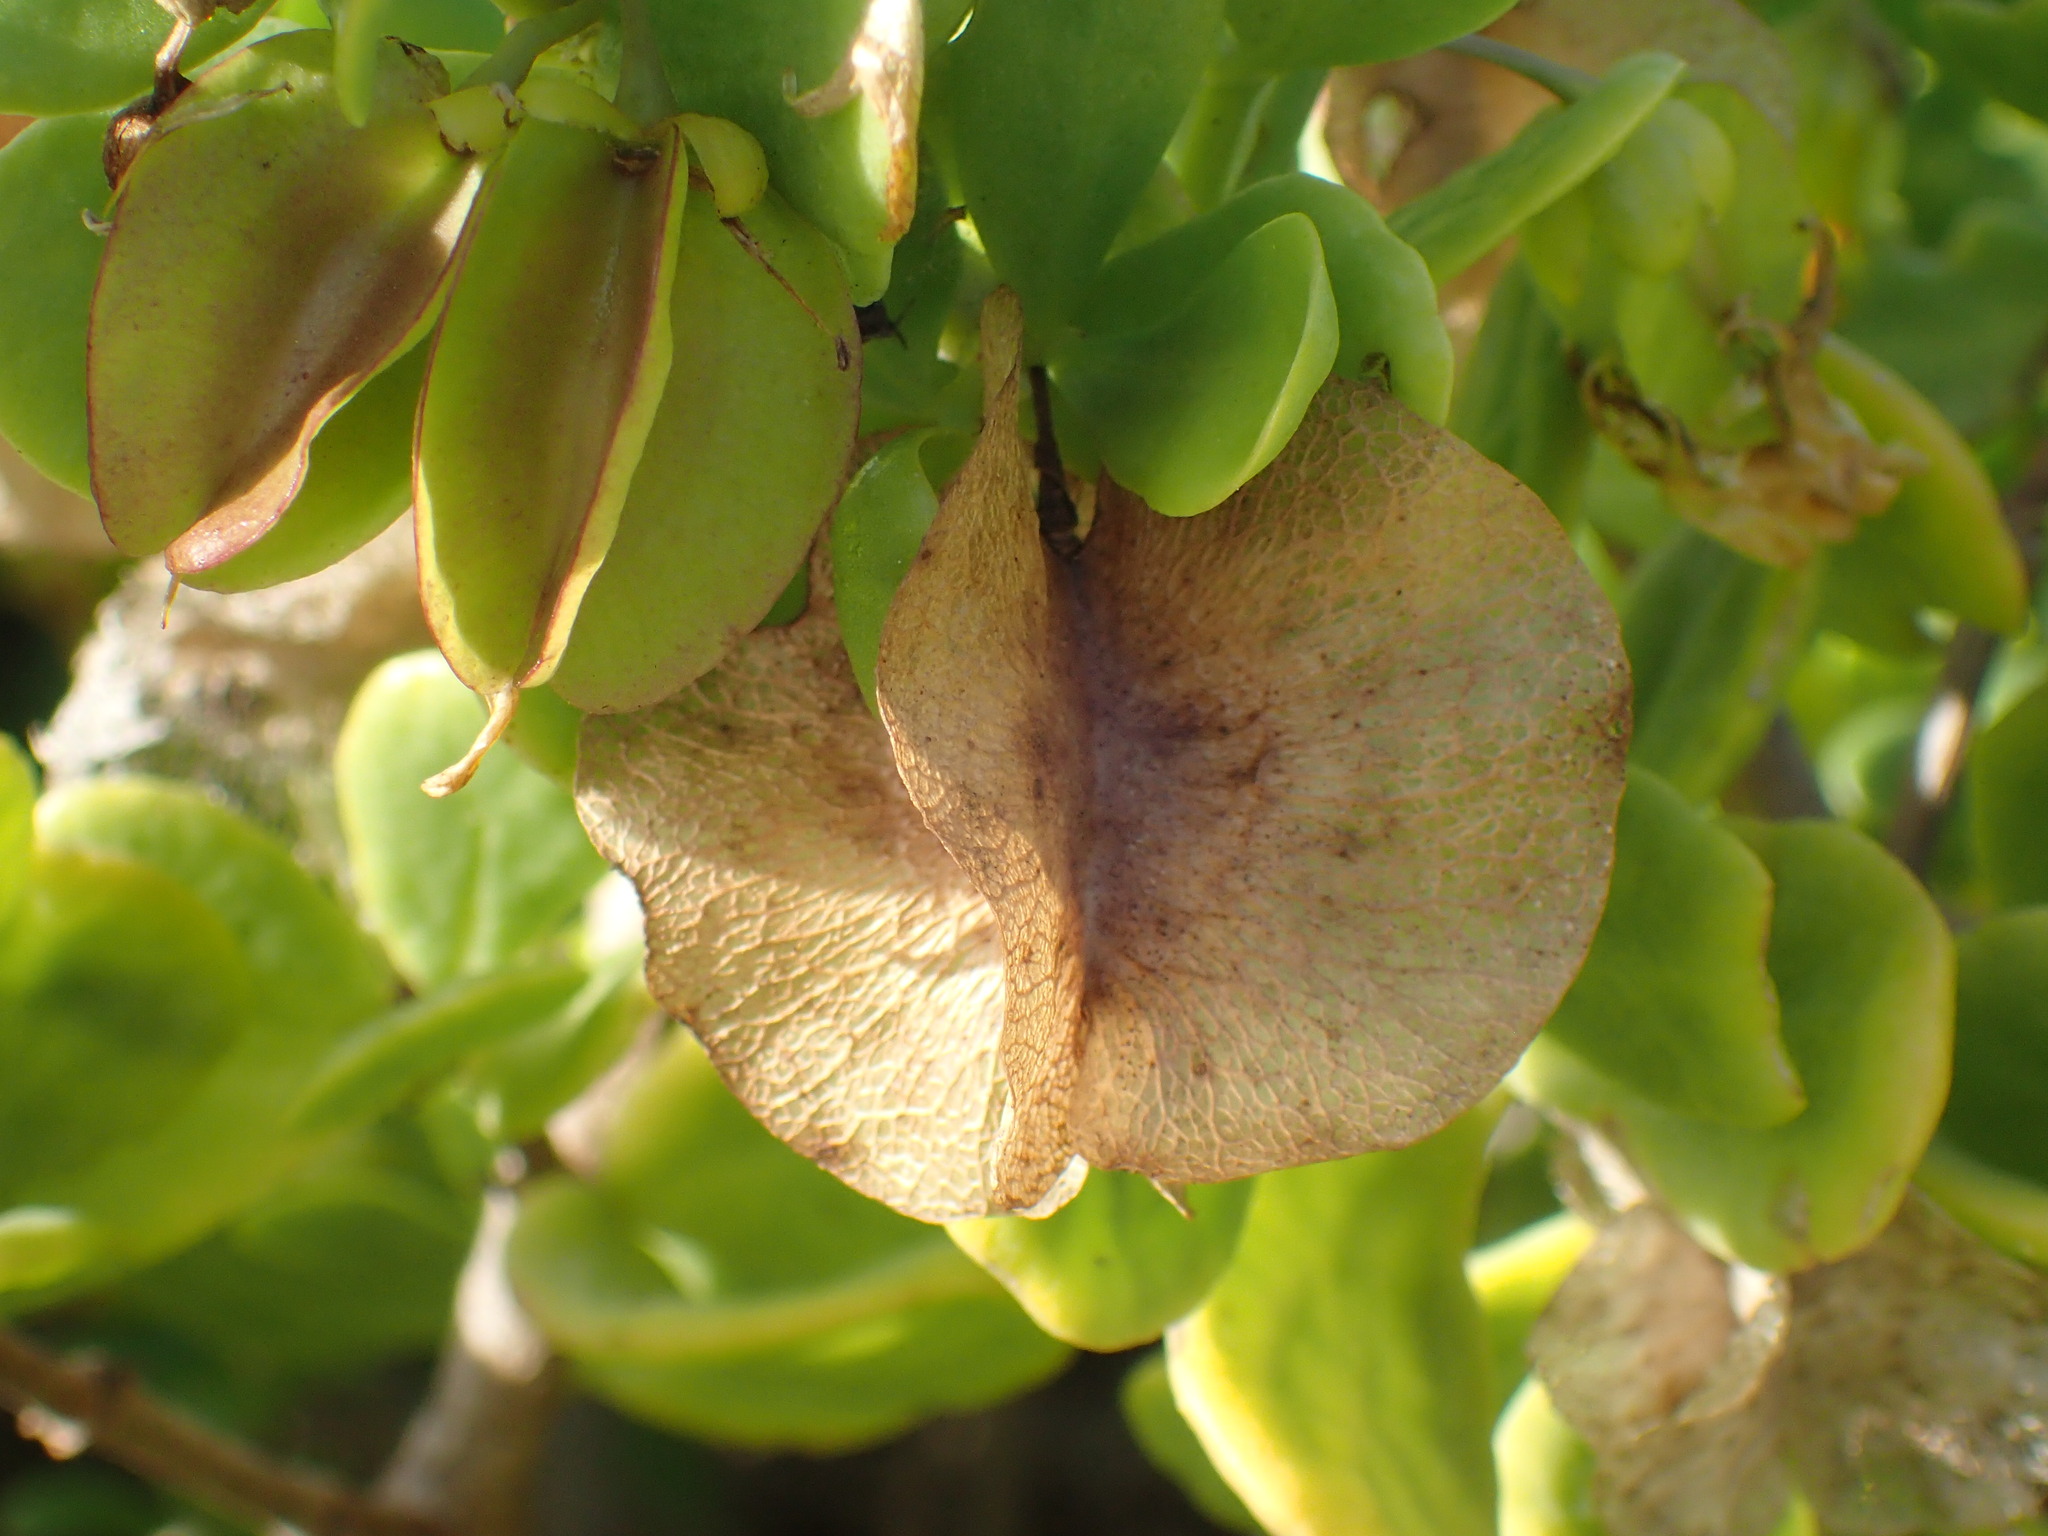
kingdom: Plantae
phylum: Tracheophyta
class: Magnoliopsida
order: Zygophyllales
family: Zygophyllaceae
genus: Roepera
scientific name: Roepera morgsana
